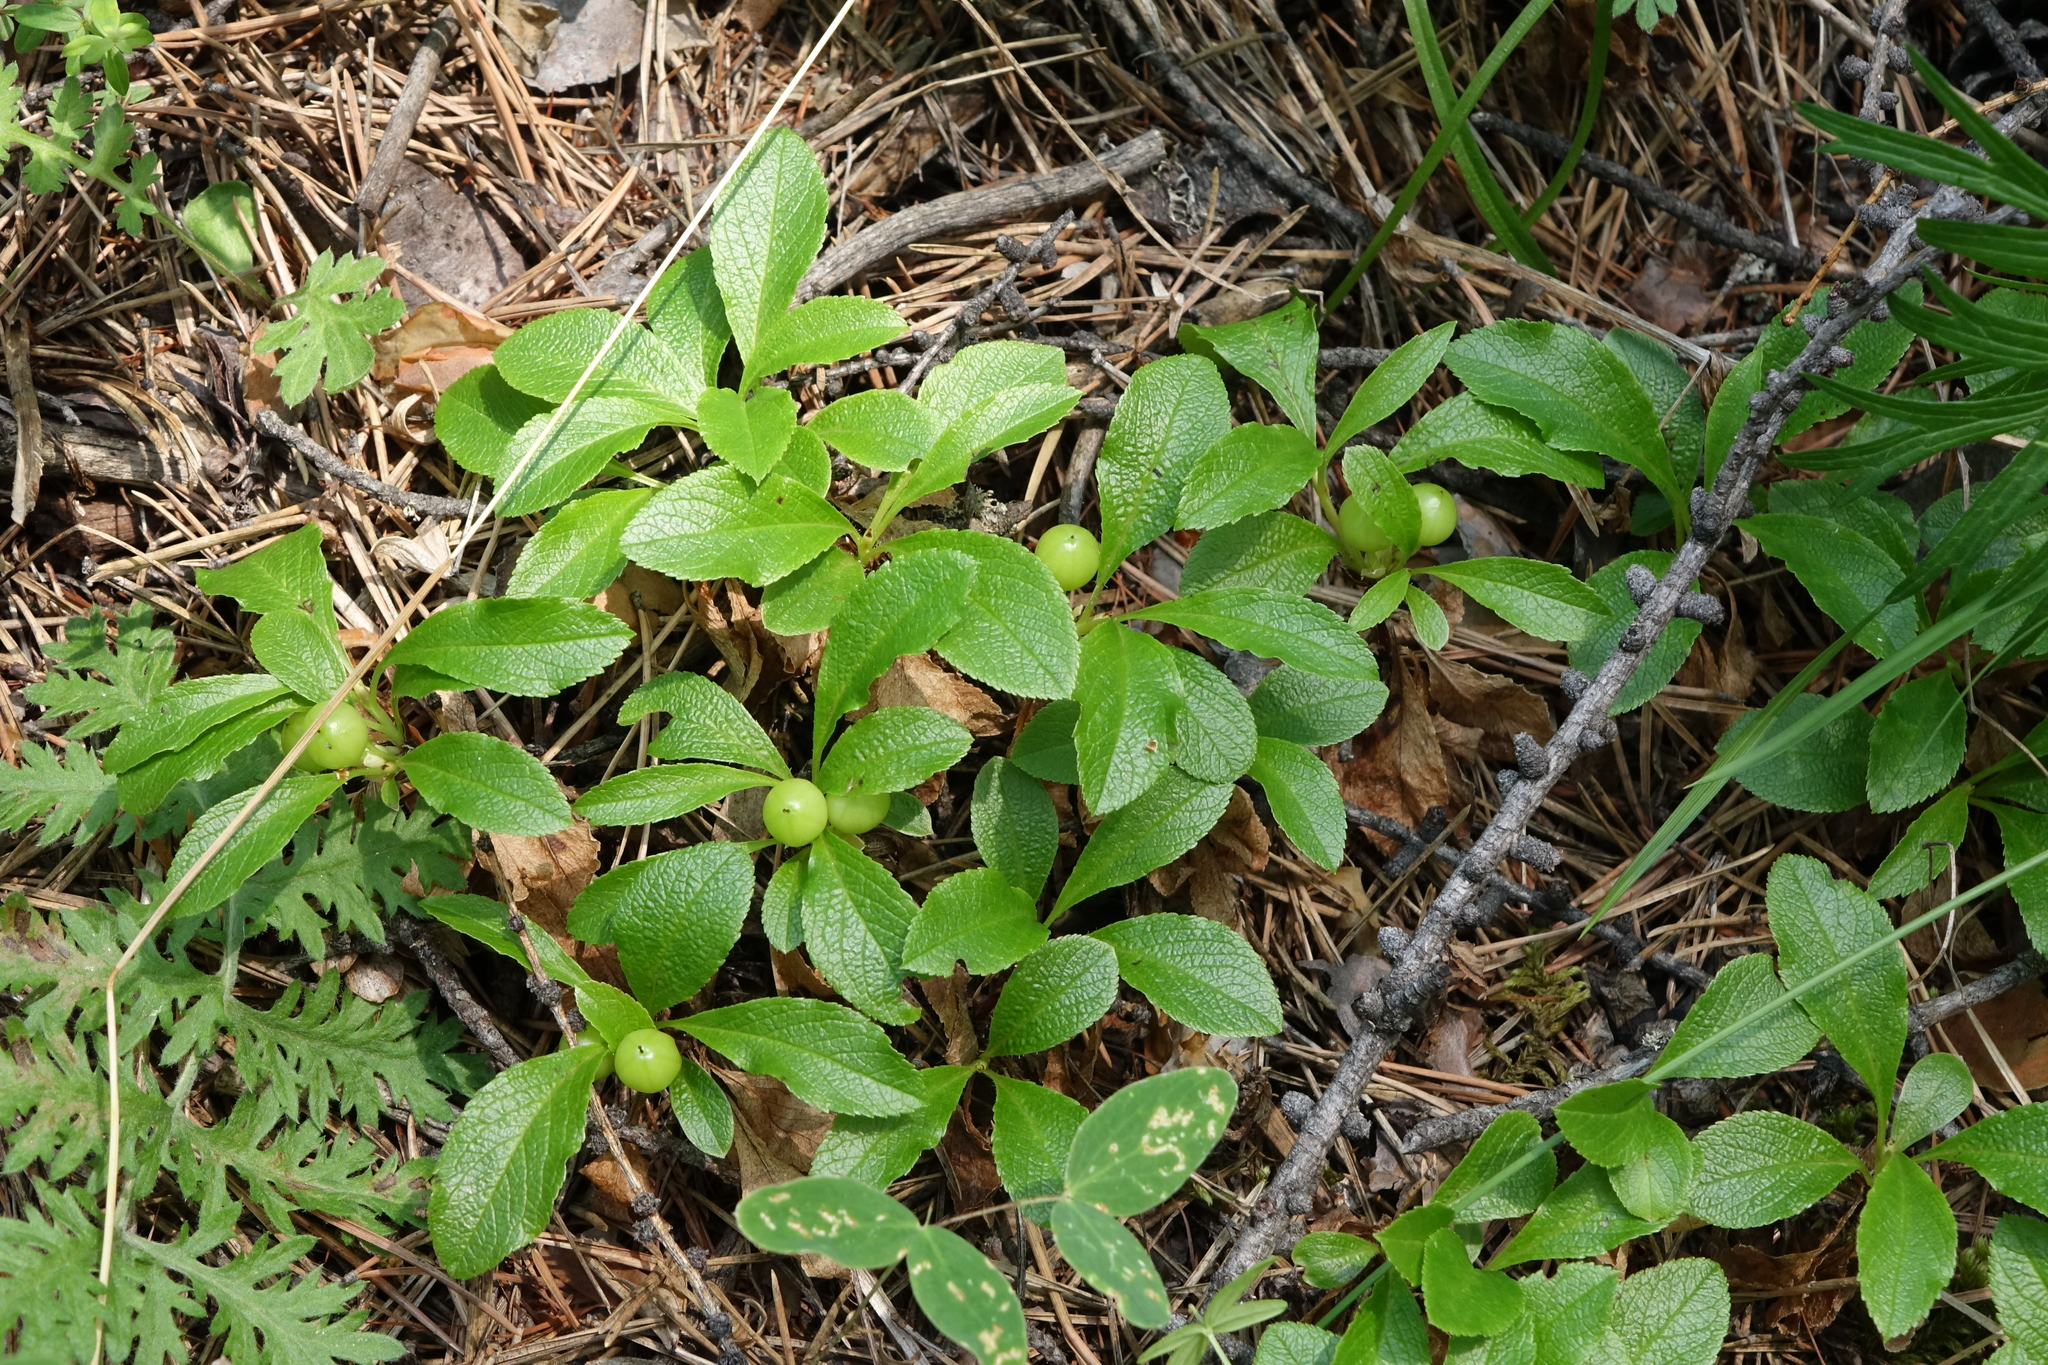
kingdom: Plantae
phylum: Tracheophyta
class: Magnoliopsida
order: Ericales
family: Ericaceae
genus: Arctostaphylos
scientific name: Arctostaphylos rubra
